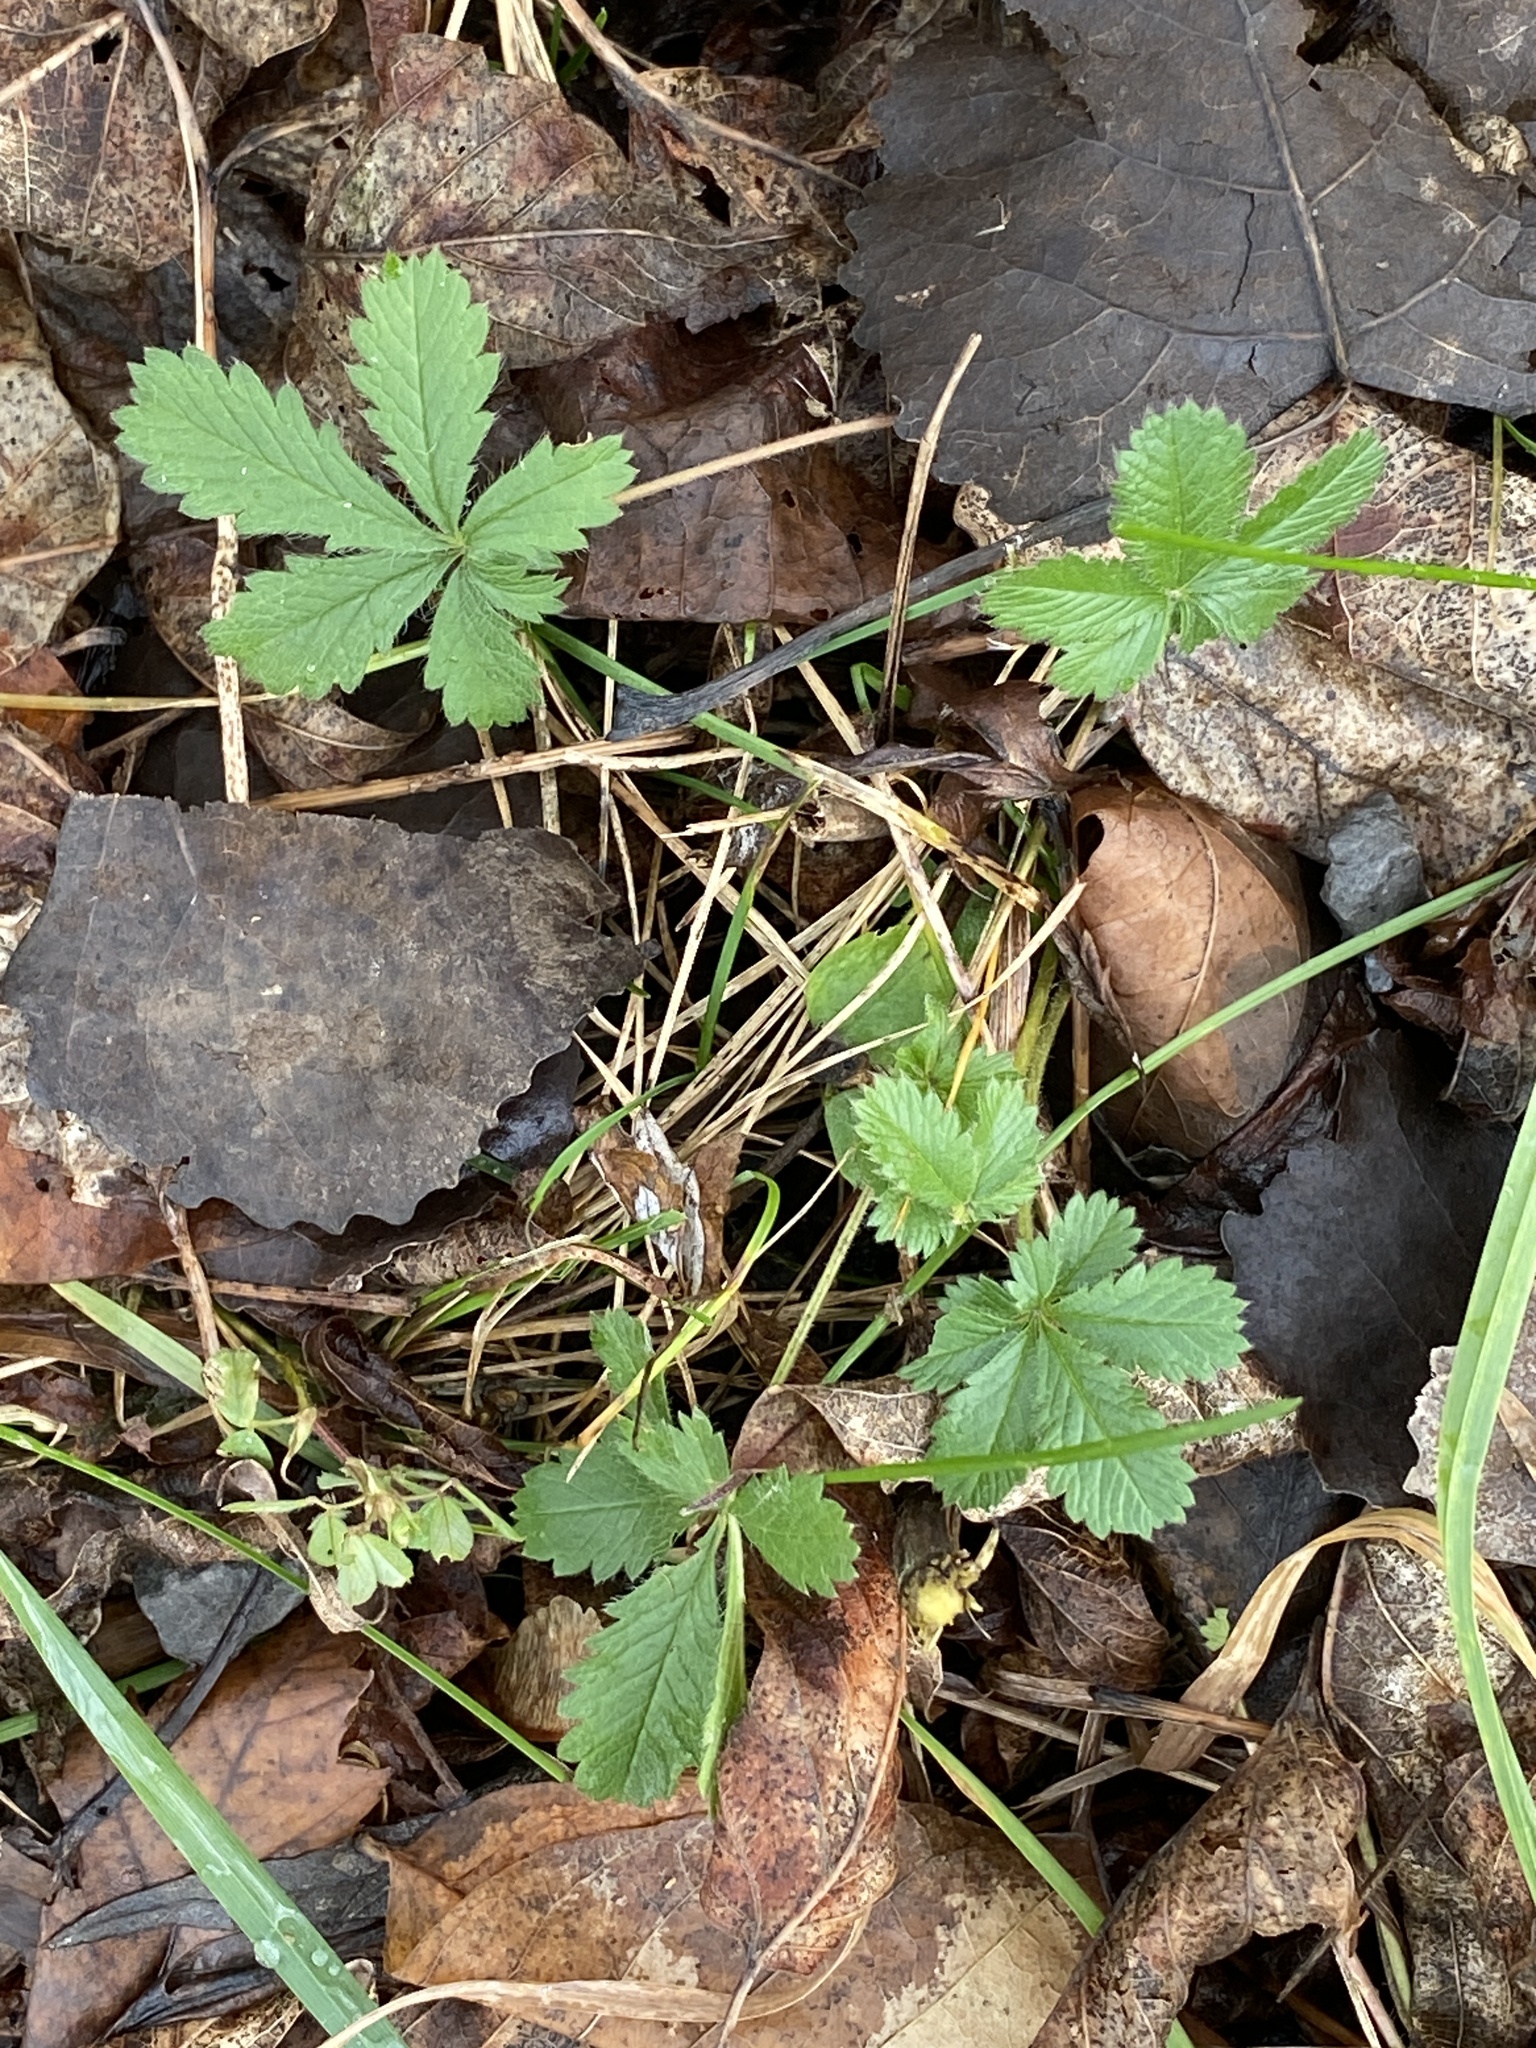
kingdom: Plantae
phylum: Tracheophyta
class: Magnoliopsida
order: Rosales
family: Rosaceae
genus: Potentilla
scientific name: Potentilla recta
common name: Sulphur cinquefoil
